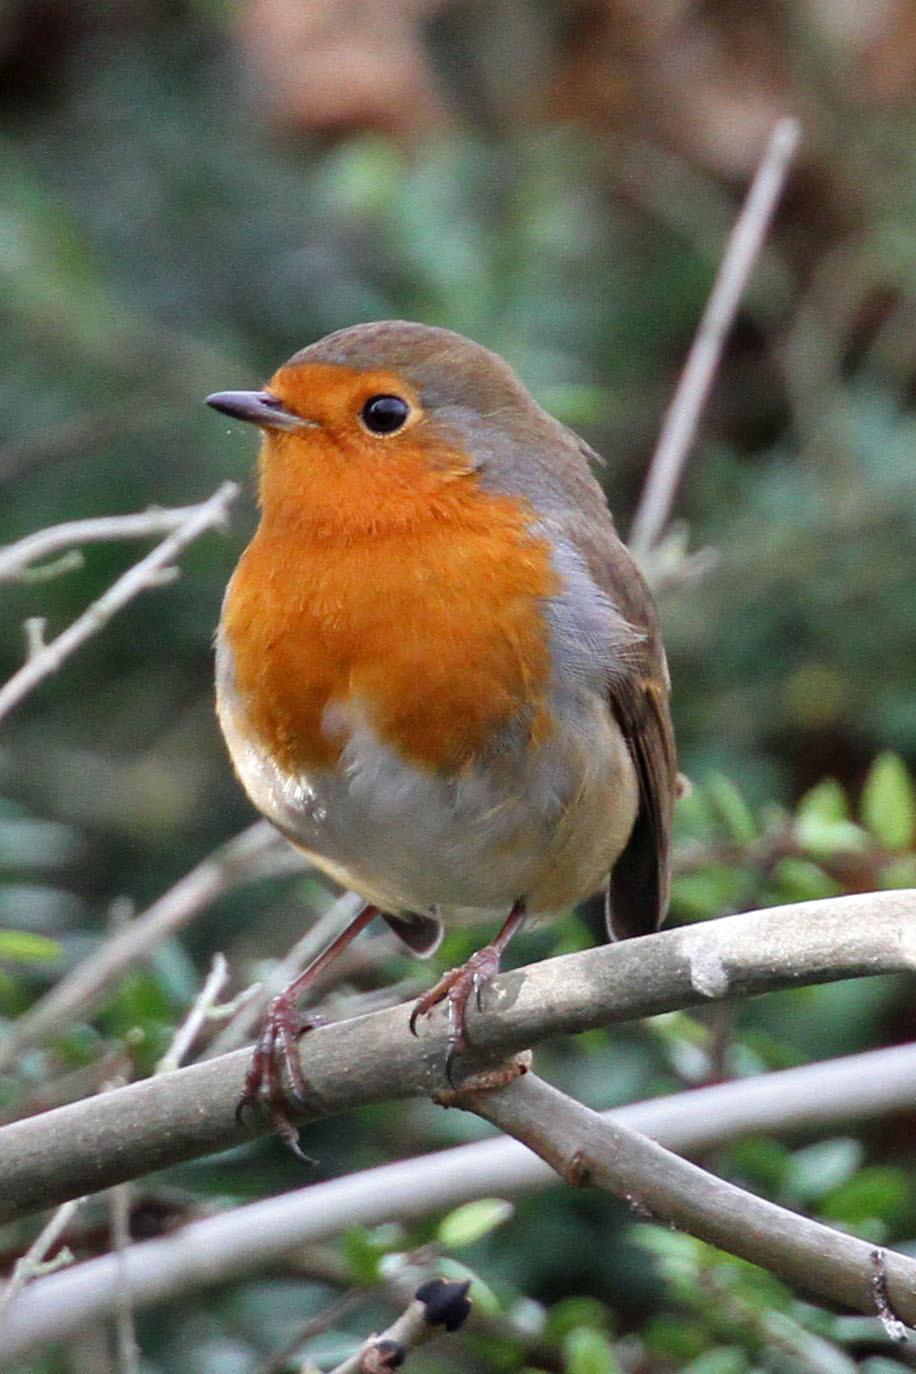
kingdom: Animalia
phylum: Chordata
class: Aves
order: Passeriformes
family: Muscicapidae
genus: Erithacus
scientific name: Erithacus rubecula
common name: European robin
